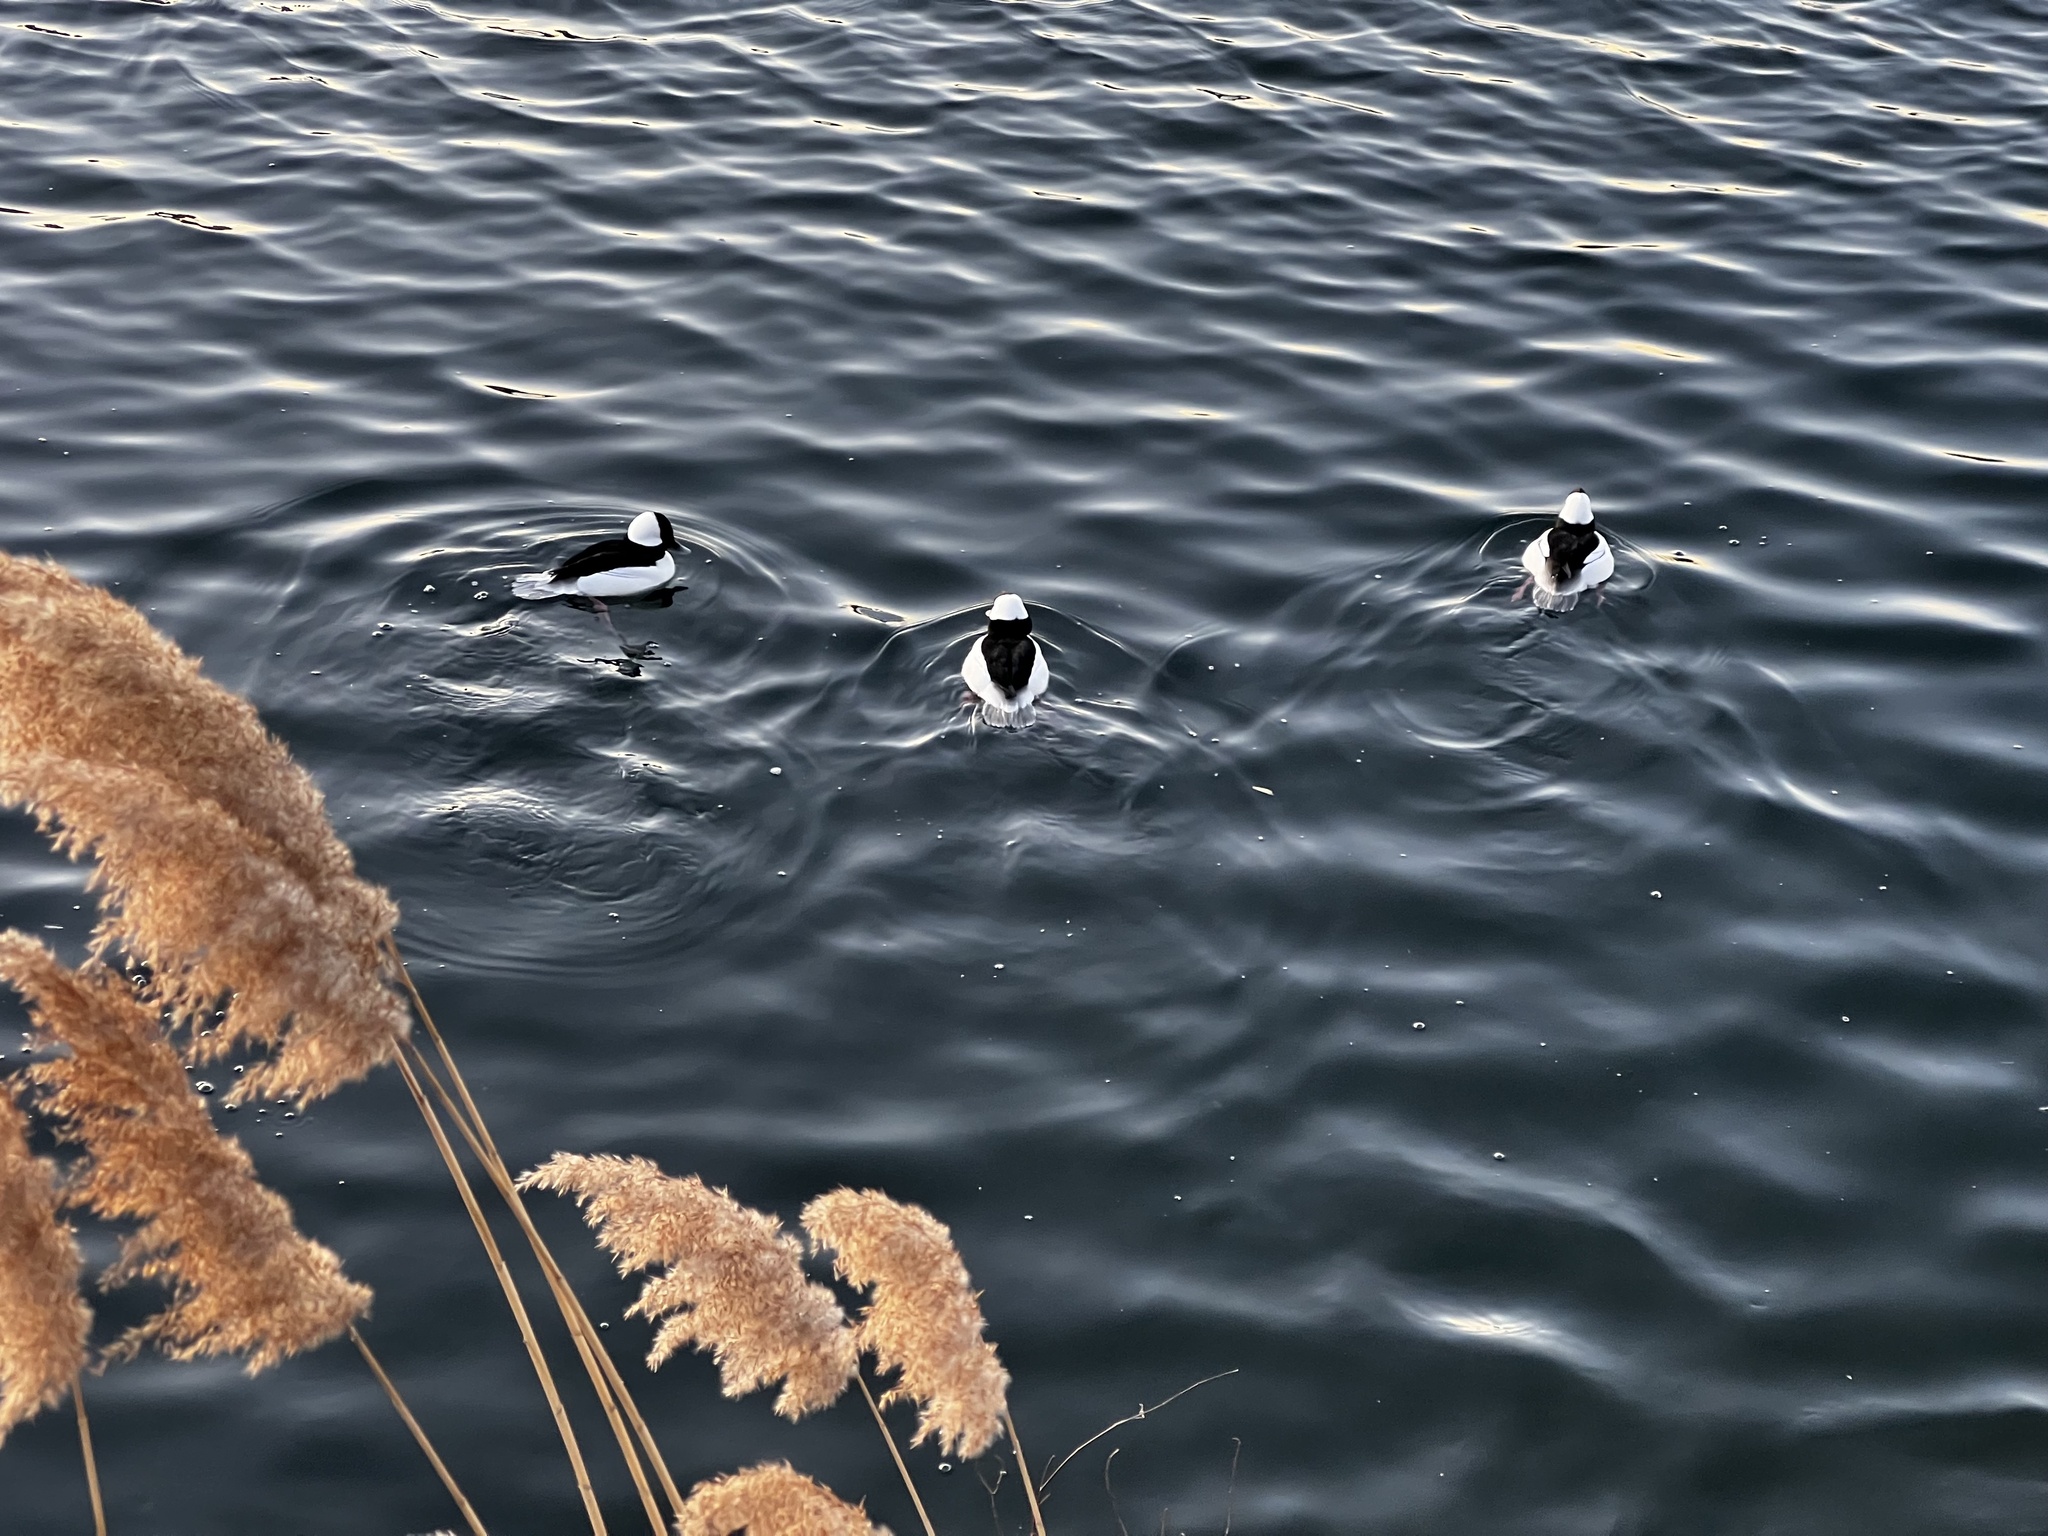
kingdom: Animalia
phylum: Chordata
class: Aves
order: Anseriformes
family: Anatidae
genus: Bucephala
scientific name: Bucephala albeola
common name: Bufflehead
